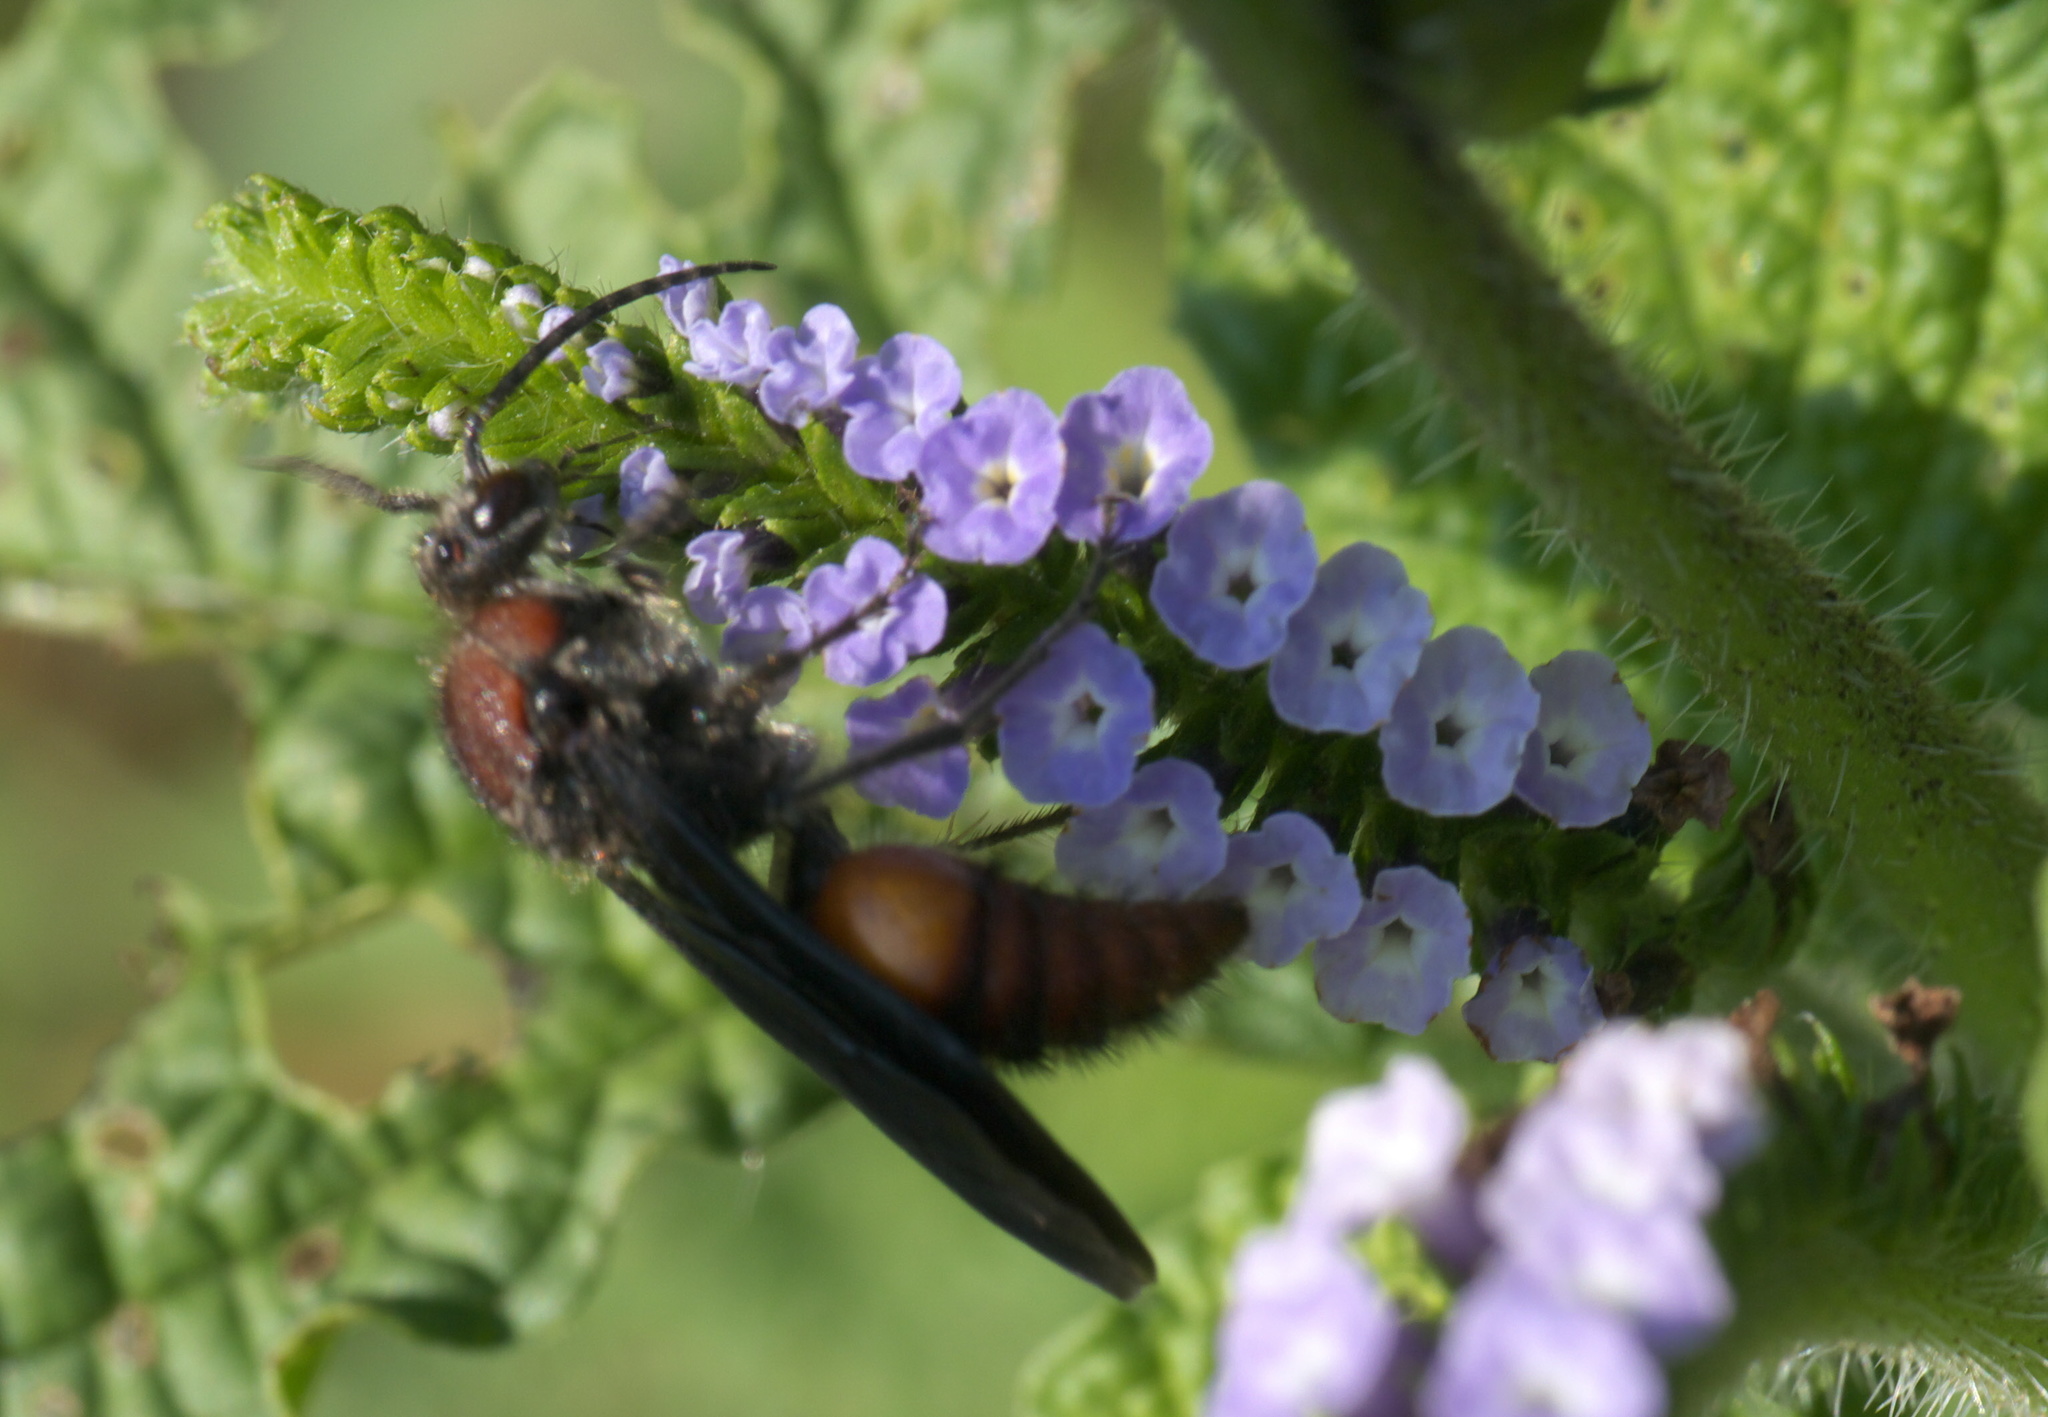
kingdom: Animalia
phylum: Arthropoda
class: Insecta
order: Hymenoptera
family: Mutillidae
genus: Timulla
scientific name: Timulla
